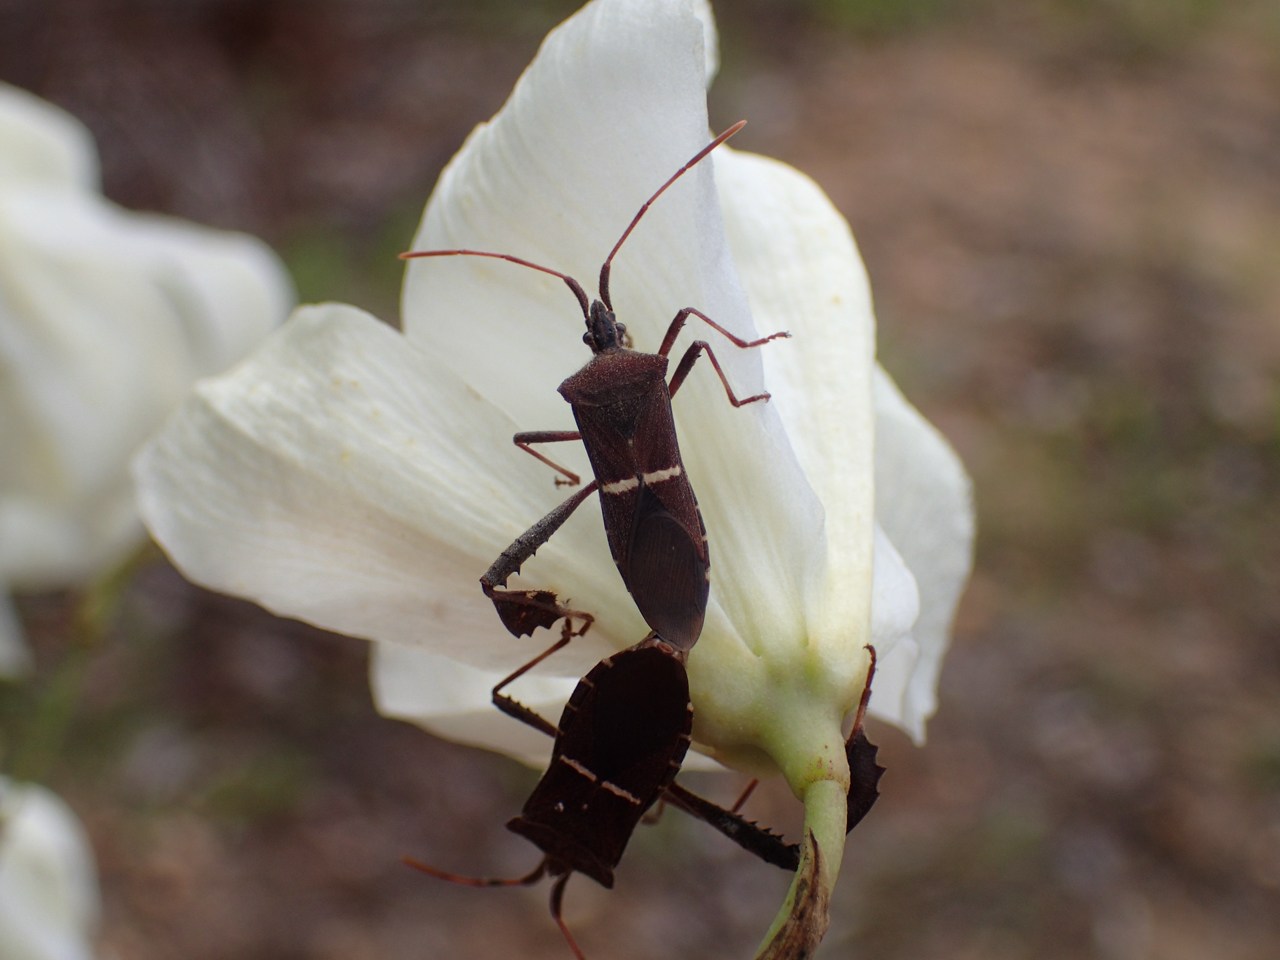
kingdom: Animalia
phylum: Arthropoda
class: Insecta
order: Hemiptera
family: Coreidae
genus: Leptoglossus
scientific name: Leptoglossus phyllopus
